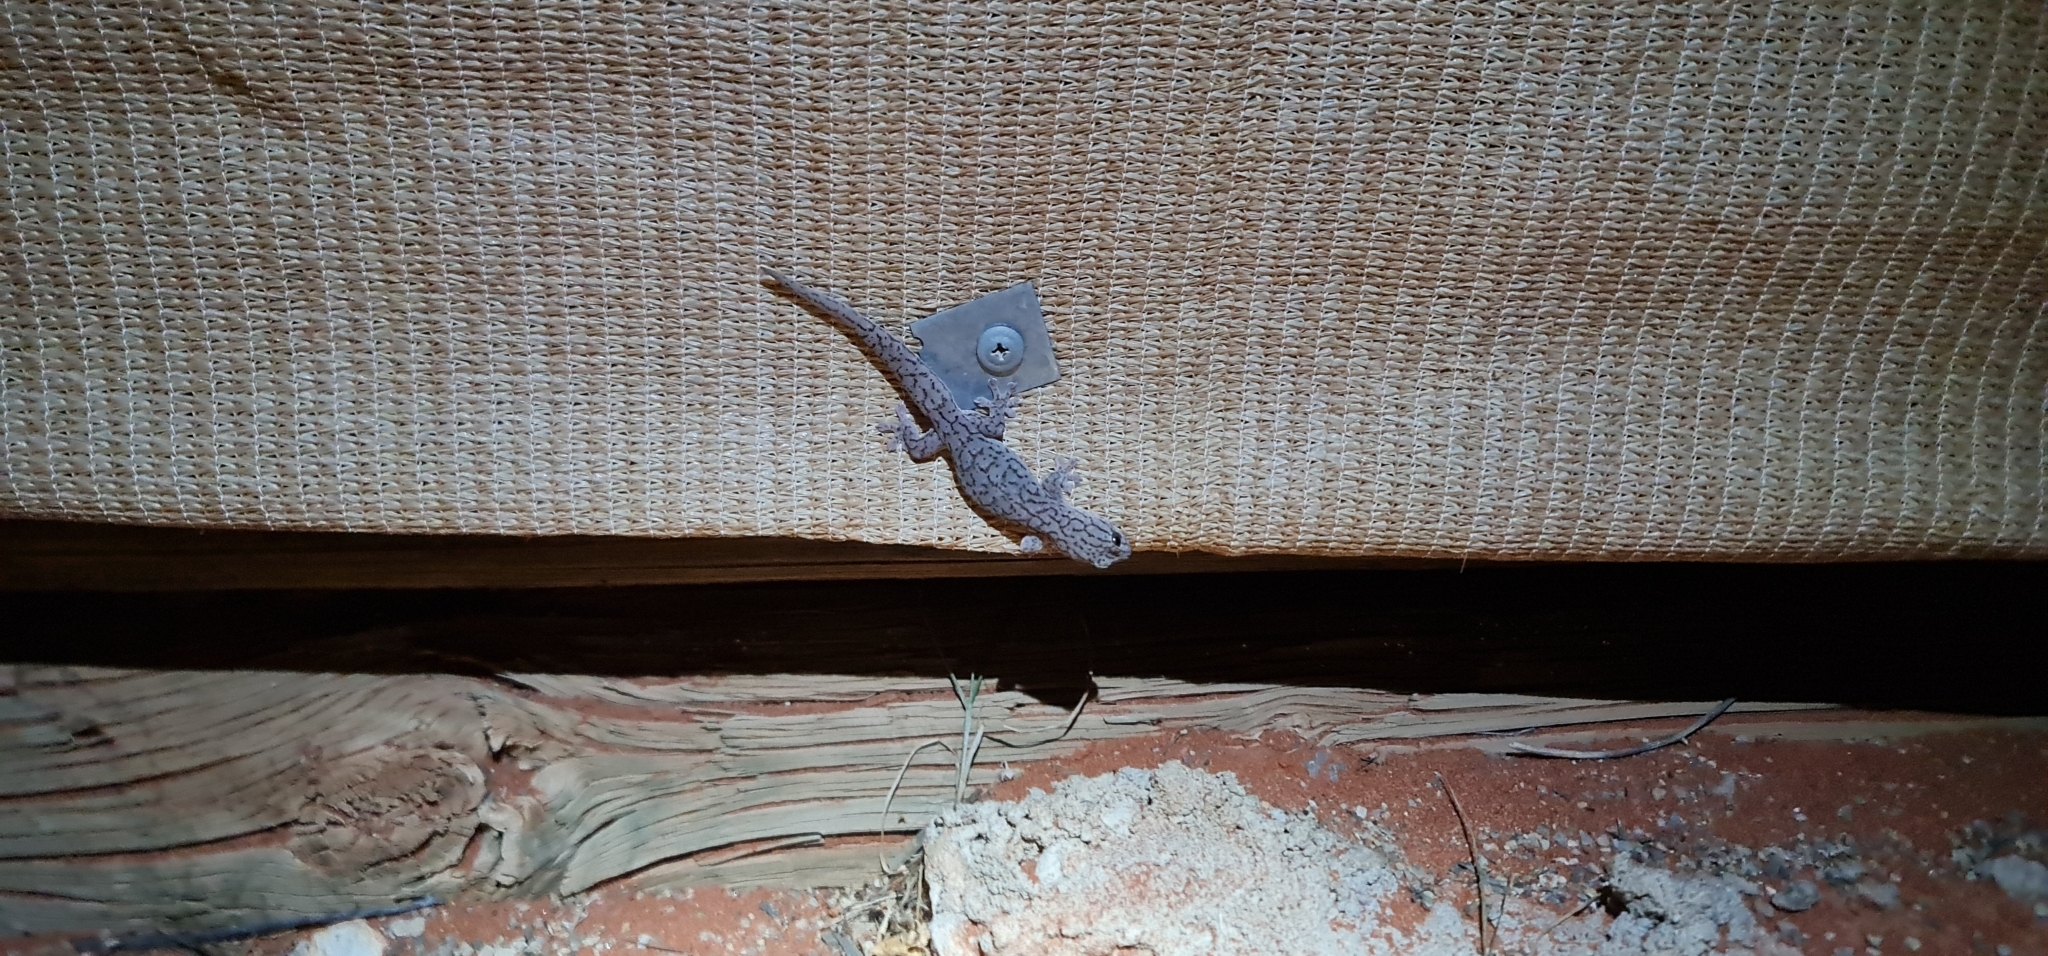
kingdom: Animalia
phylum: Chordata
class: Squamata
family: Gekkonidae
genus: Gehyra
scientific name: Gehyra versicolor
